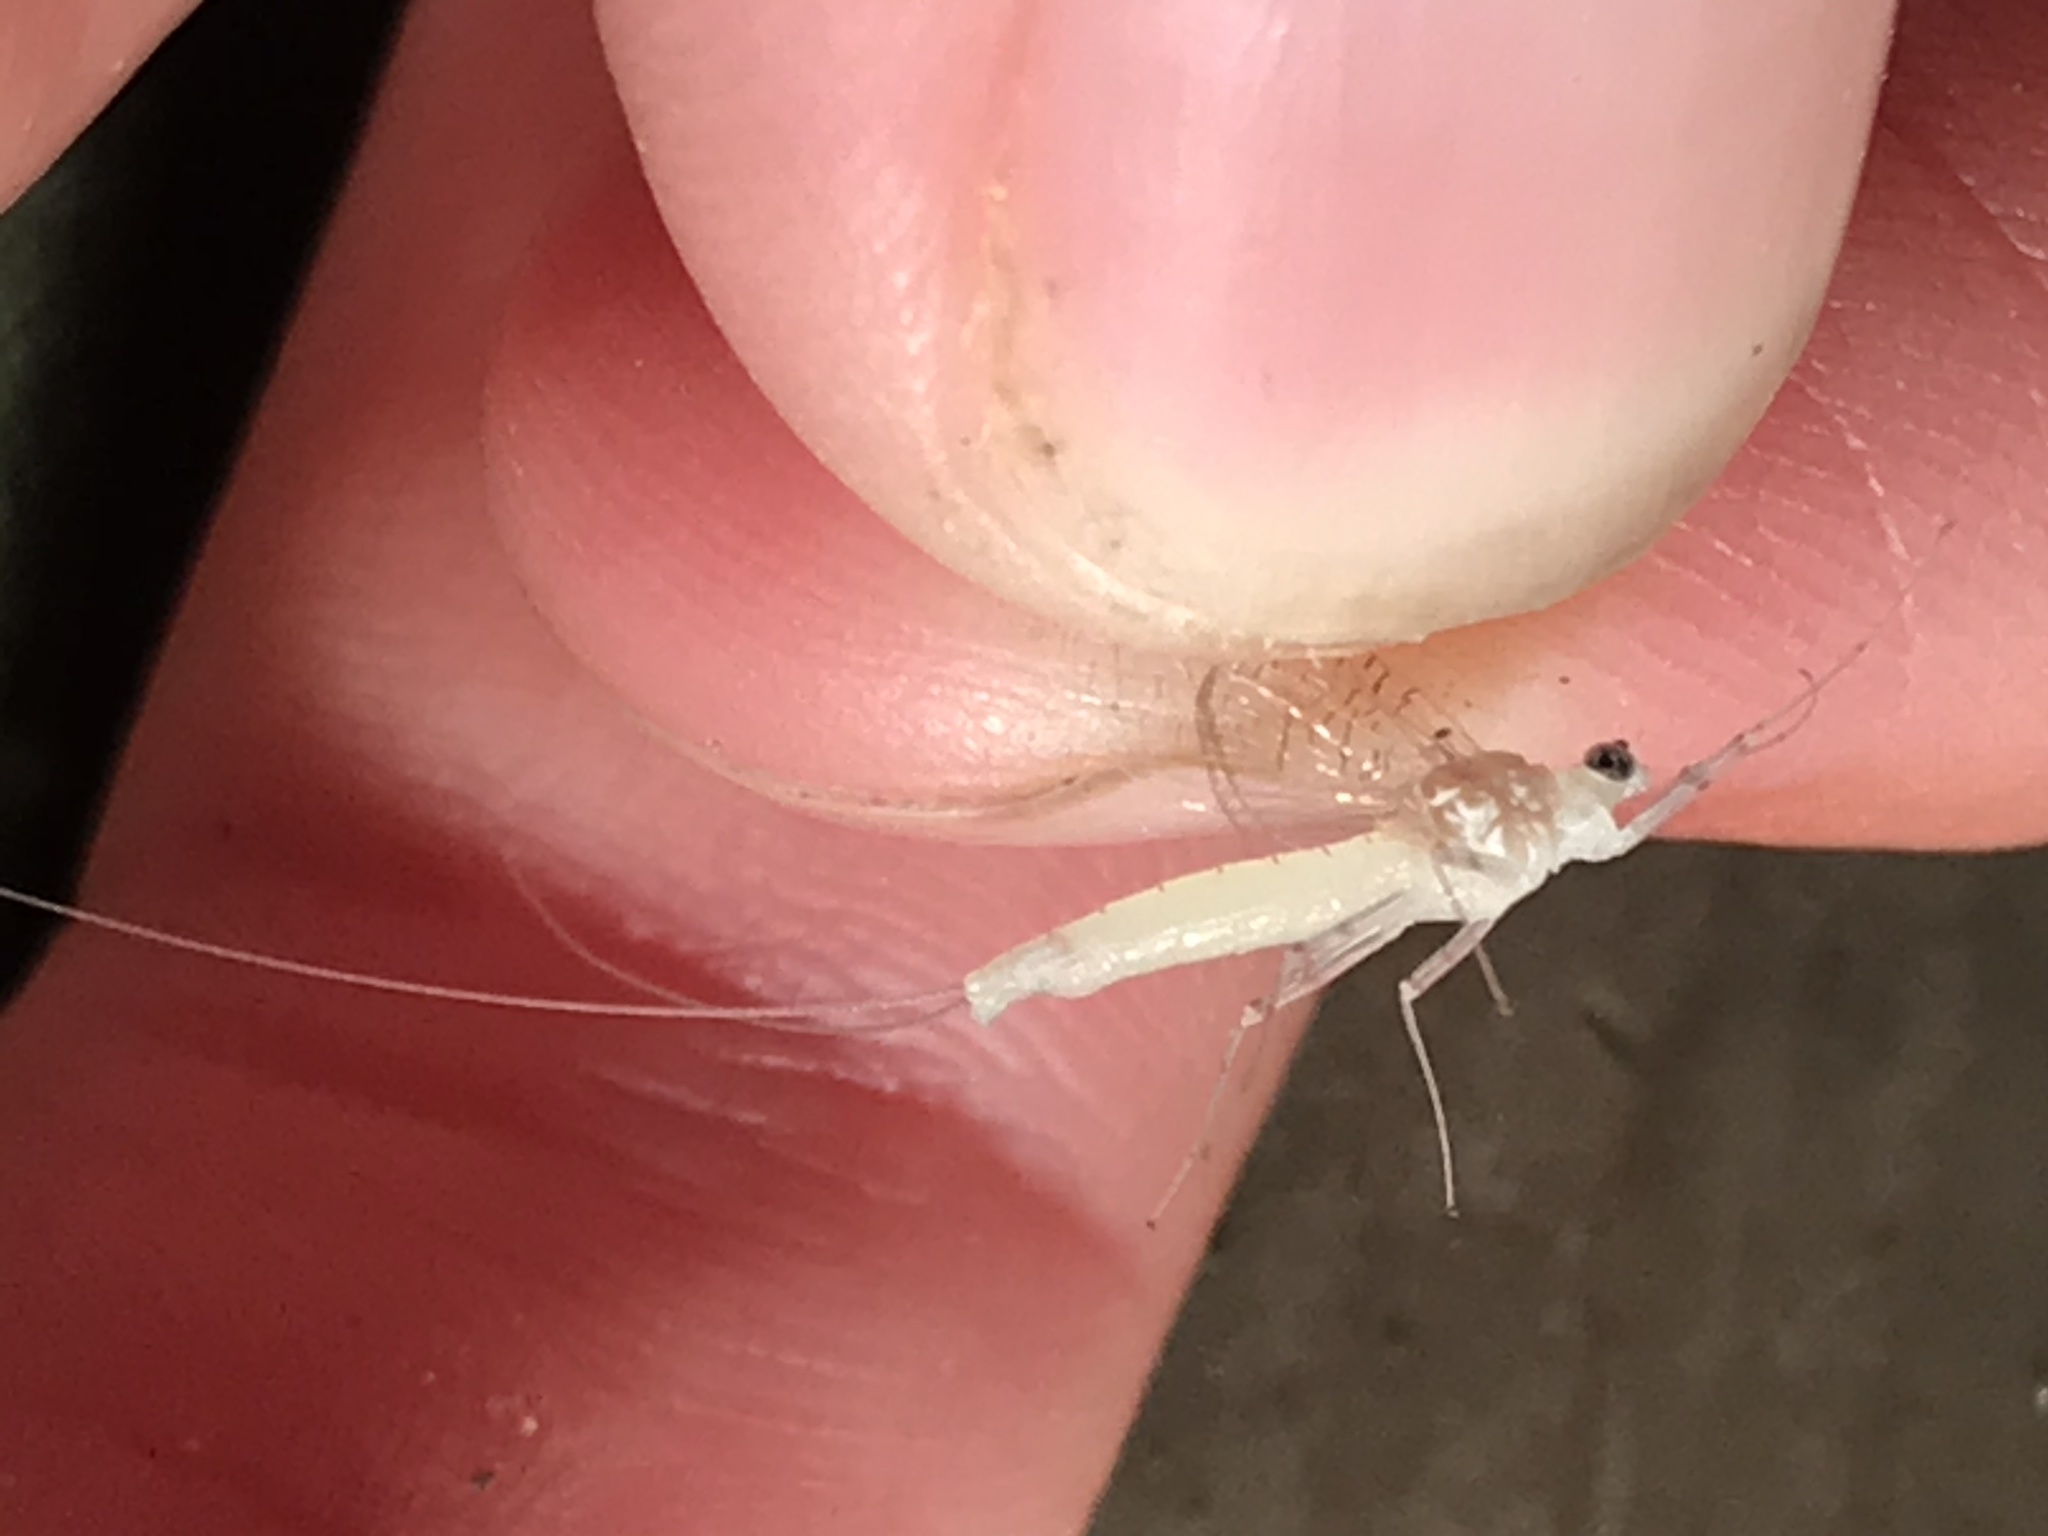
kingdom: Animalia
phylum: Arthropoda
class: Insecta
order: Ephemeroptera
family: Heptageniidae
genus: Maccaffertium
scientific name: Maccaffertium vicarium
